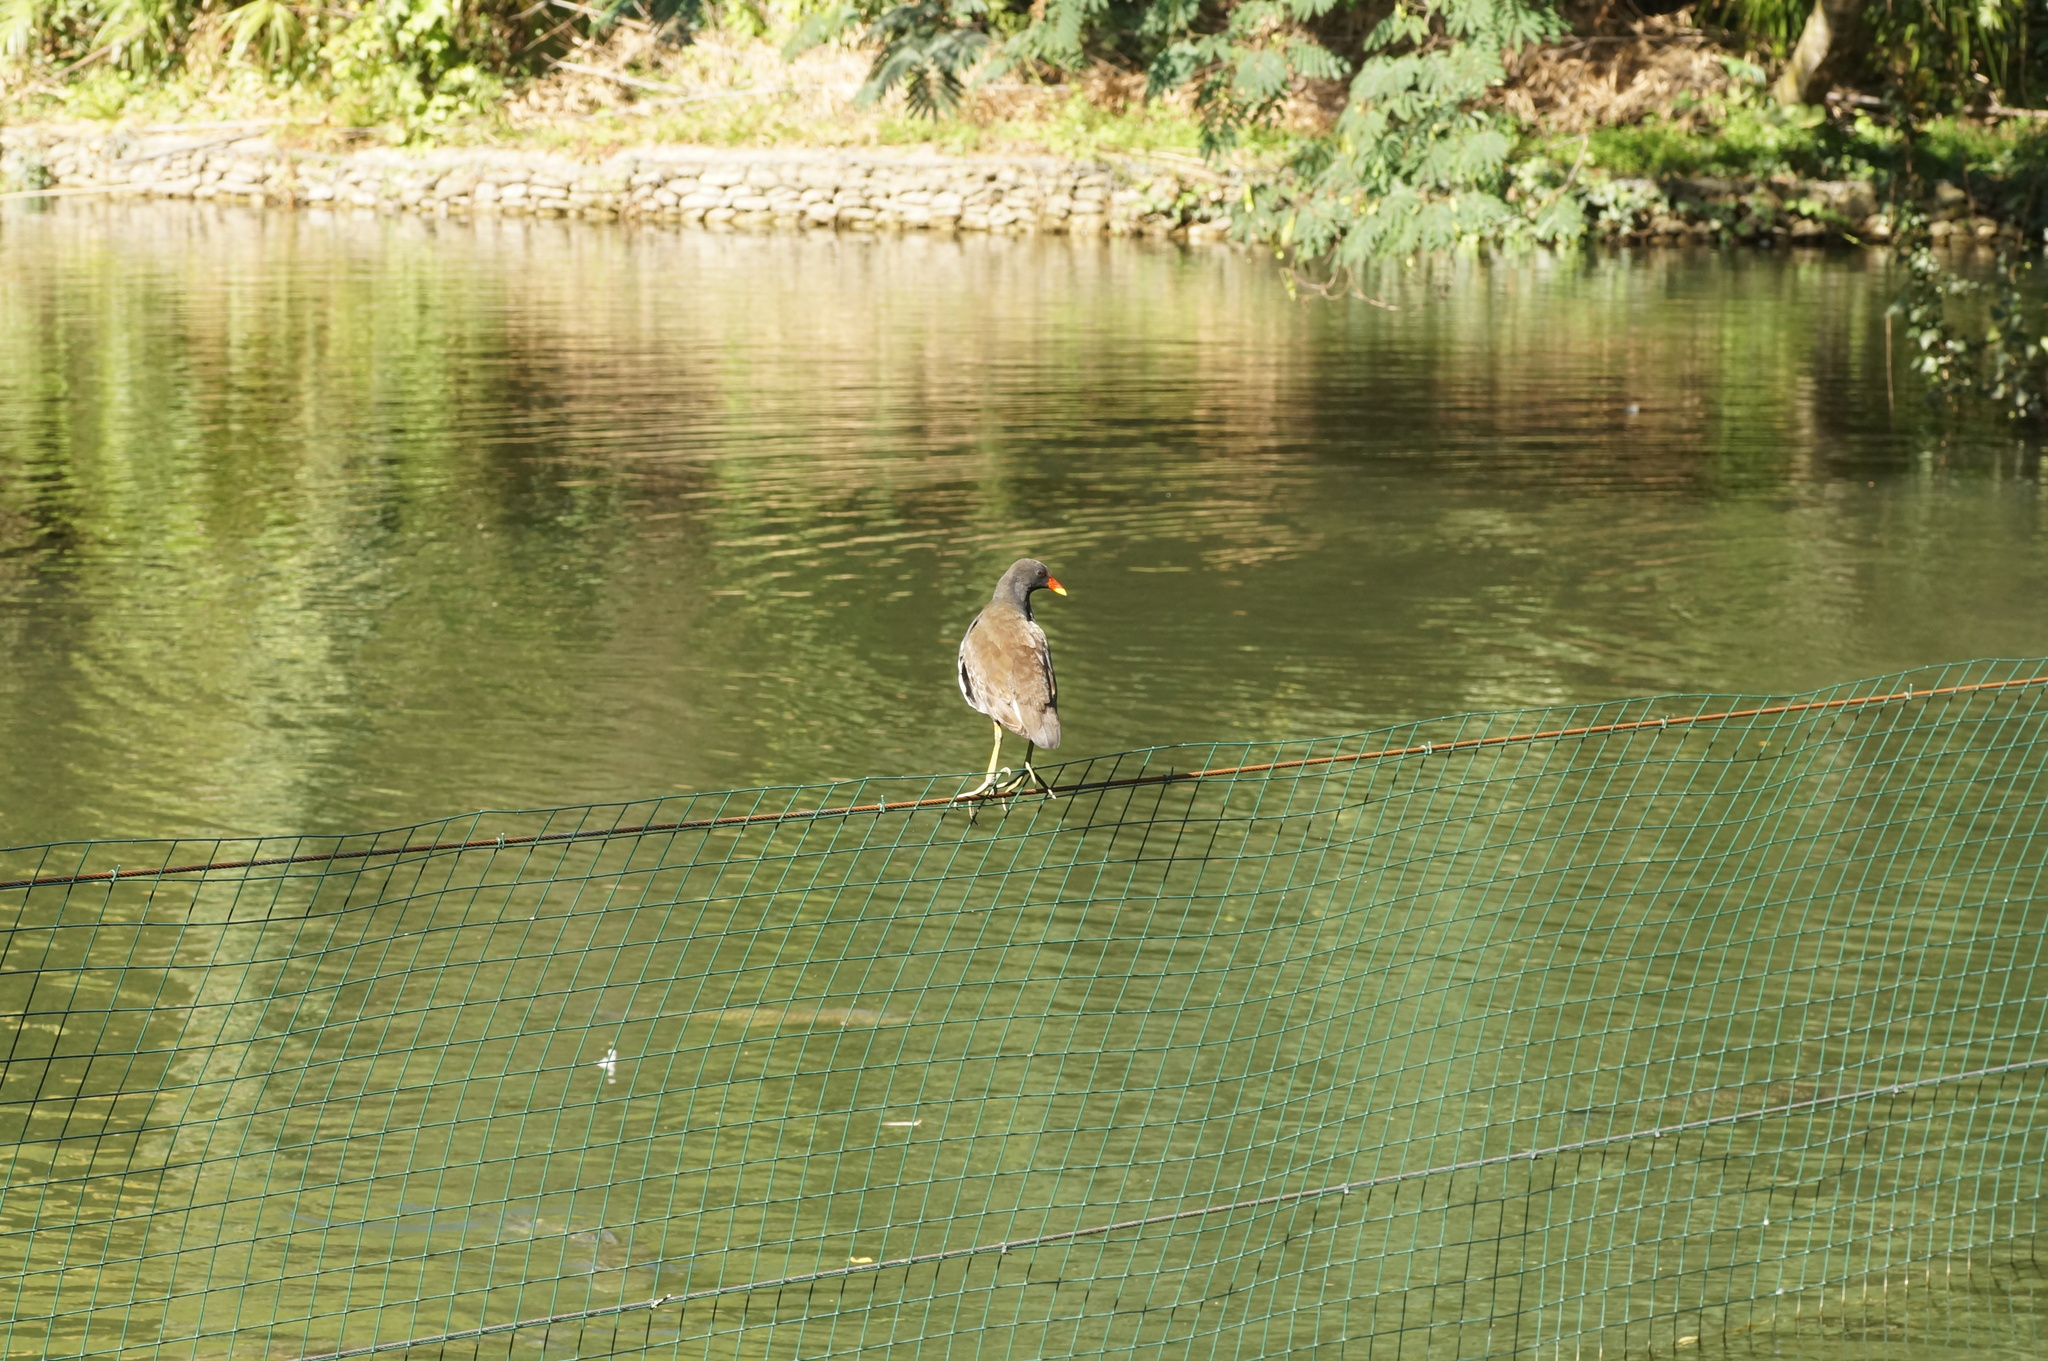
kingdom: Animalia
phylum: Chordata
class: Aves
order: Gruiformes
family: Rallidae
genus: Gallinula
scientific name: Gallinula chloropus
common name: Common moorhen
